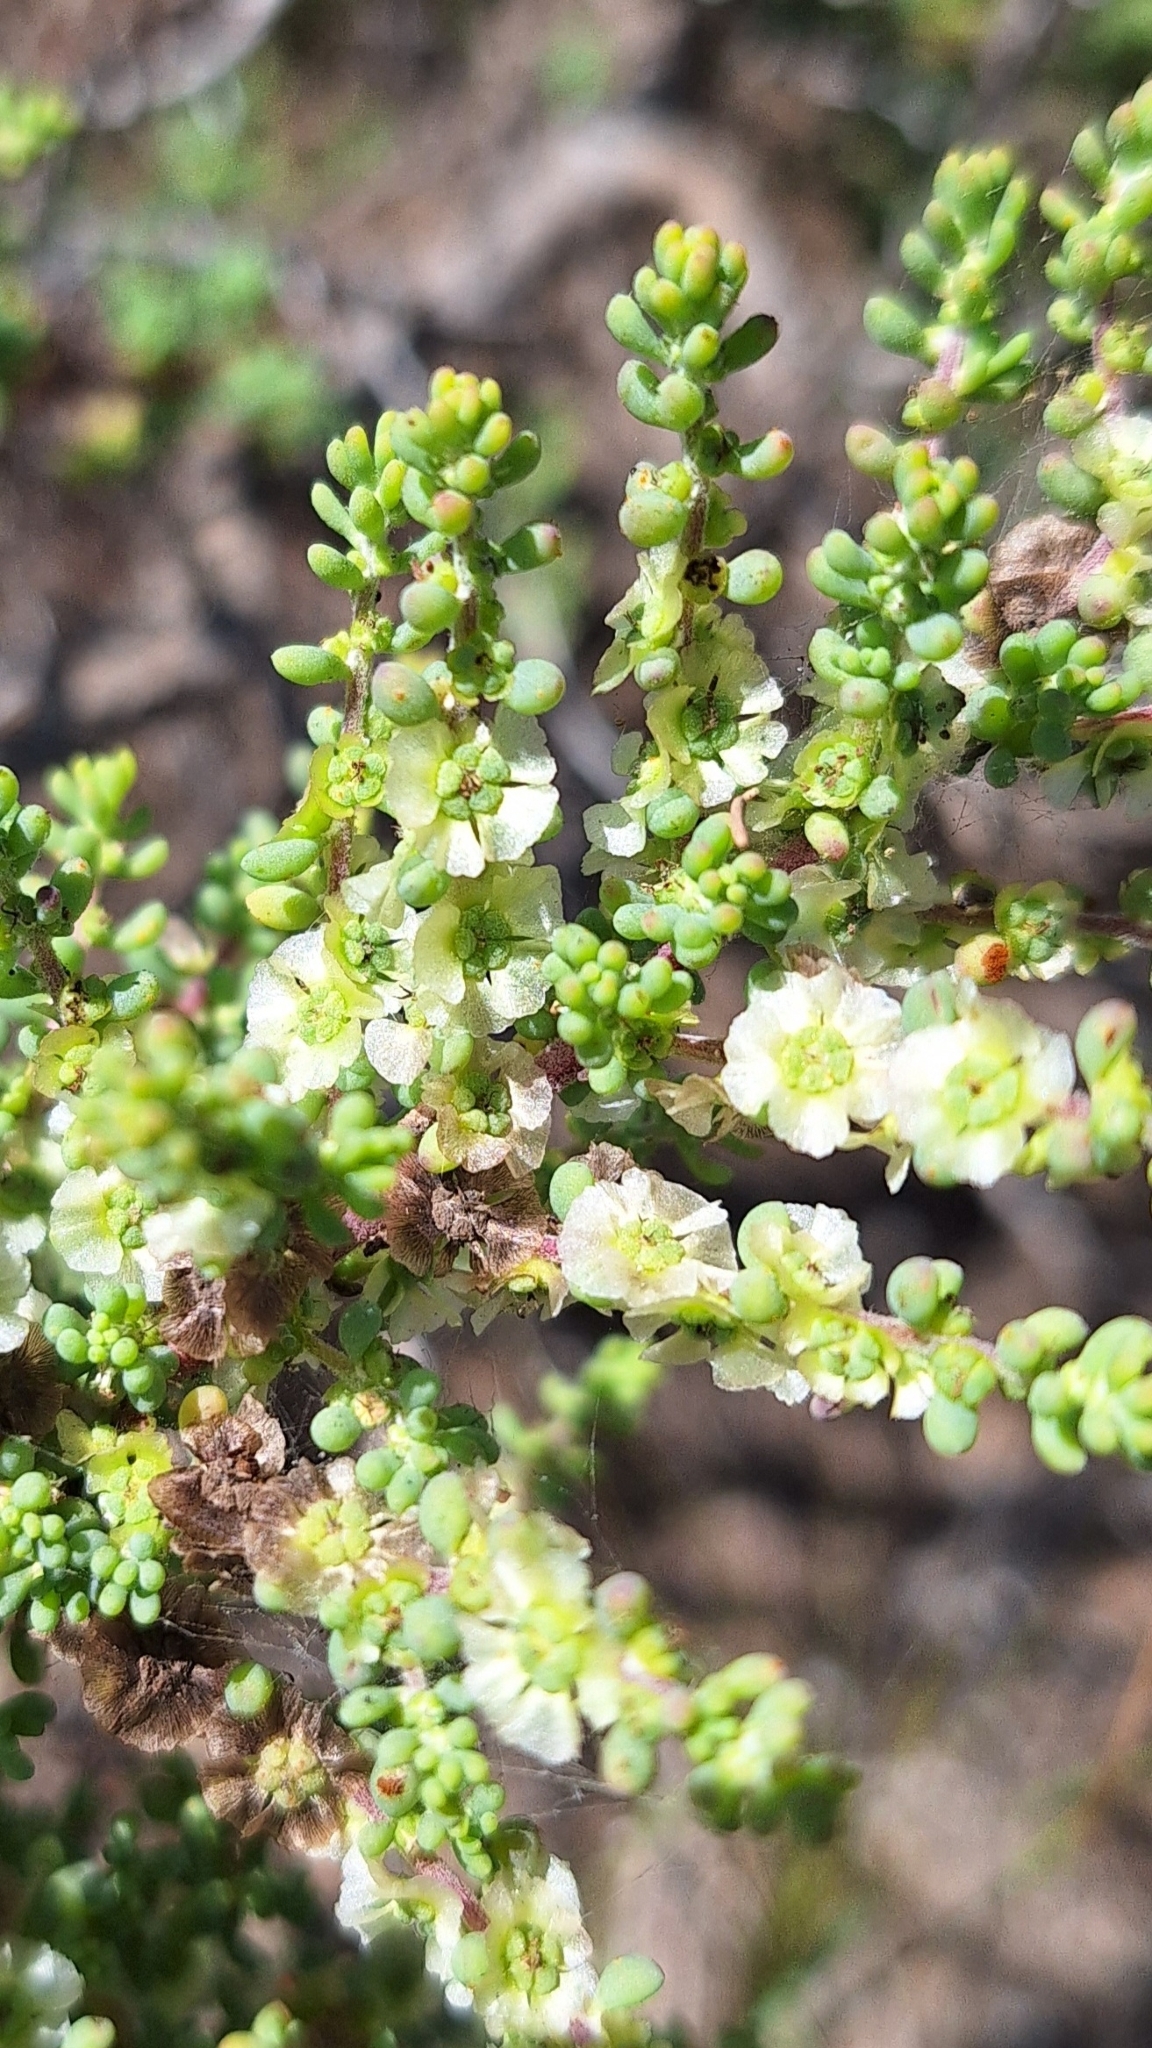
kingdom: Plantae
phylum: Tracheophyta
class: Magnoliopsida
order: Caryophyllales
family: Amaranthaceae
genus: Maireana
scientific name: Maireana brevifolia
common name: Eastern cottonbush
